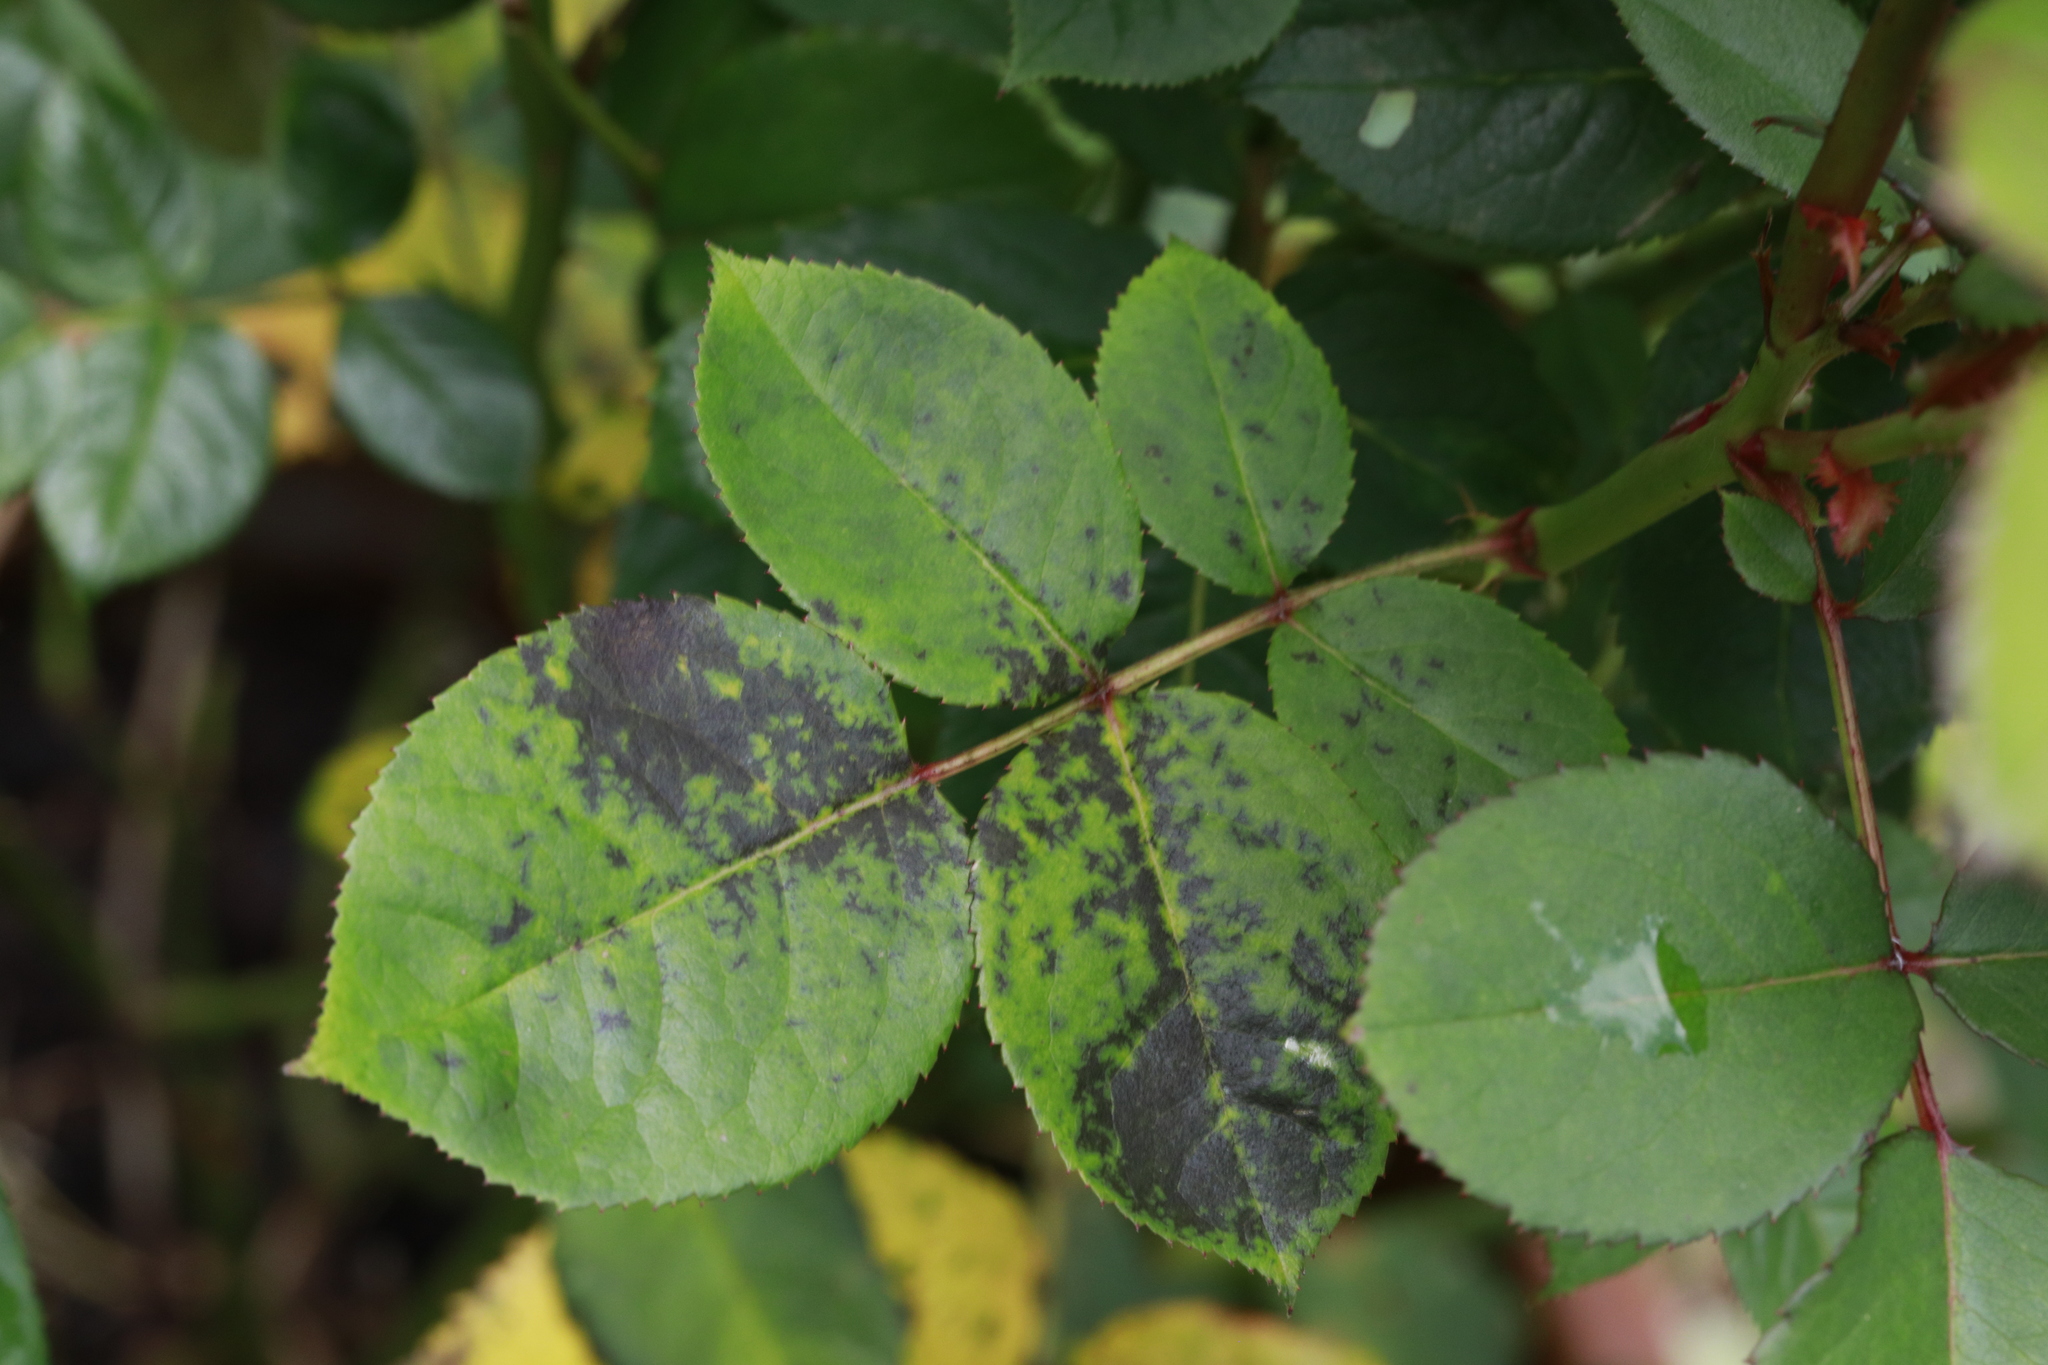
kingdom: Fungi
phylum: Ascomycota
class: Leotiomycetes
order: Helotiales
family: Drepanopezizaceae
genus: Diplocarpon
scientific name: Diplocarpon rosae
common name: Rose black-spot
